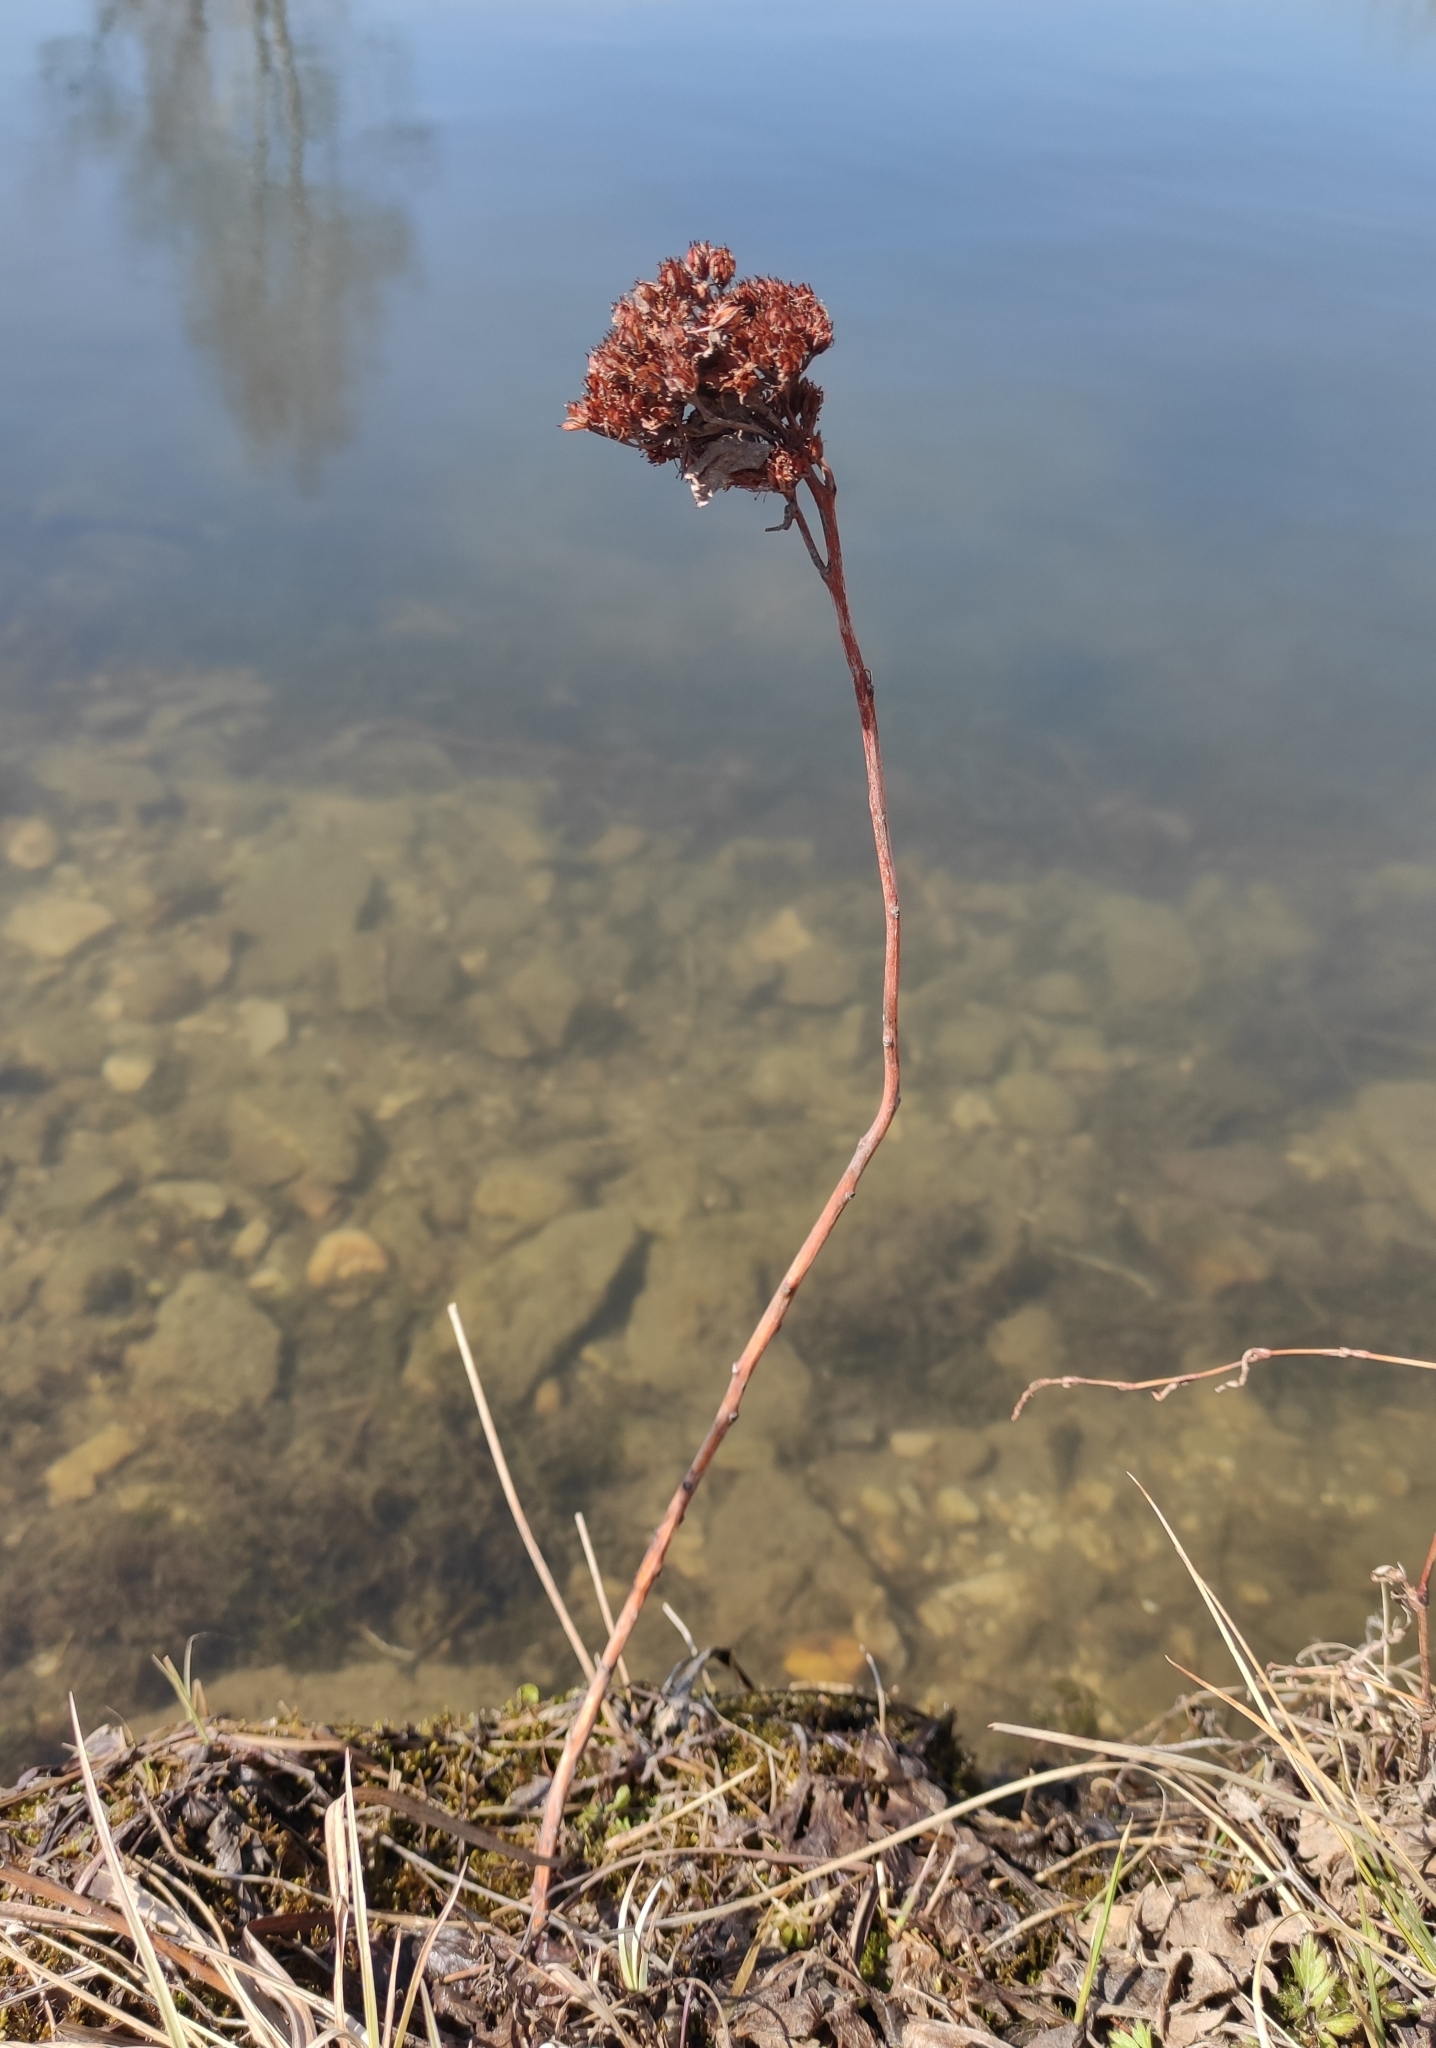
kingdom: Plantae
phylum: Tracheophyta
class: Magnoliopsida
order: Saxifragales
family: Crassulaceae
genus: Hylotelephium
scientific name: Hylotelephium telephium
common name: Live-forever
